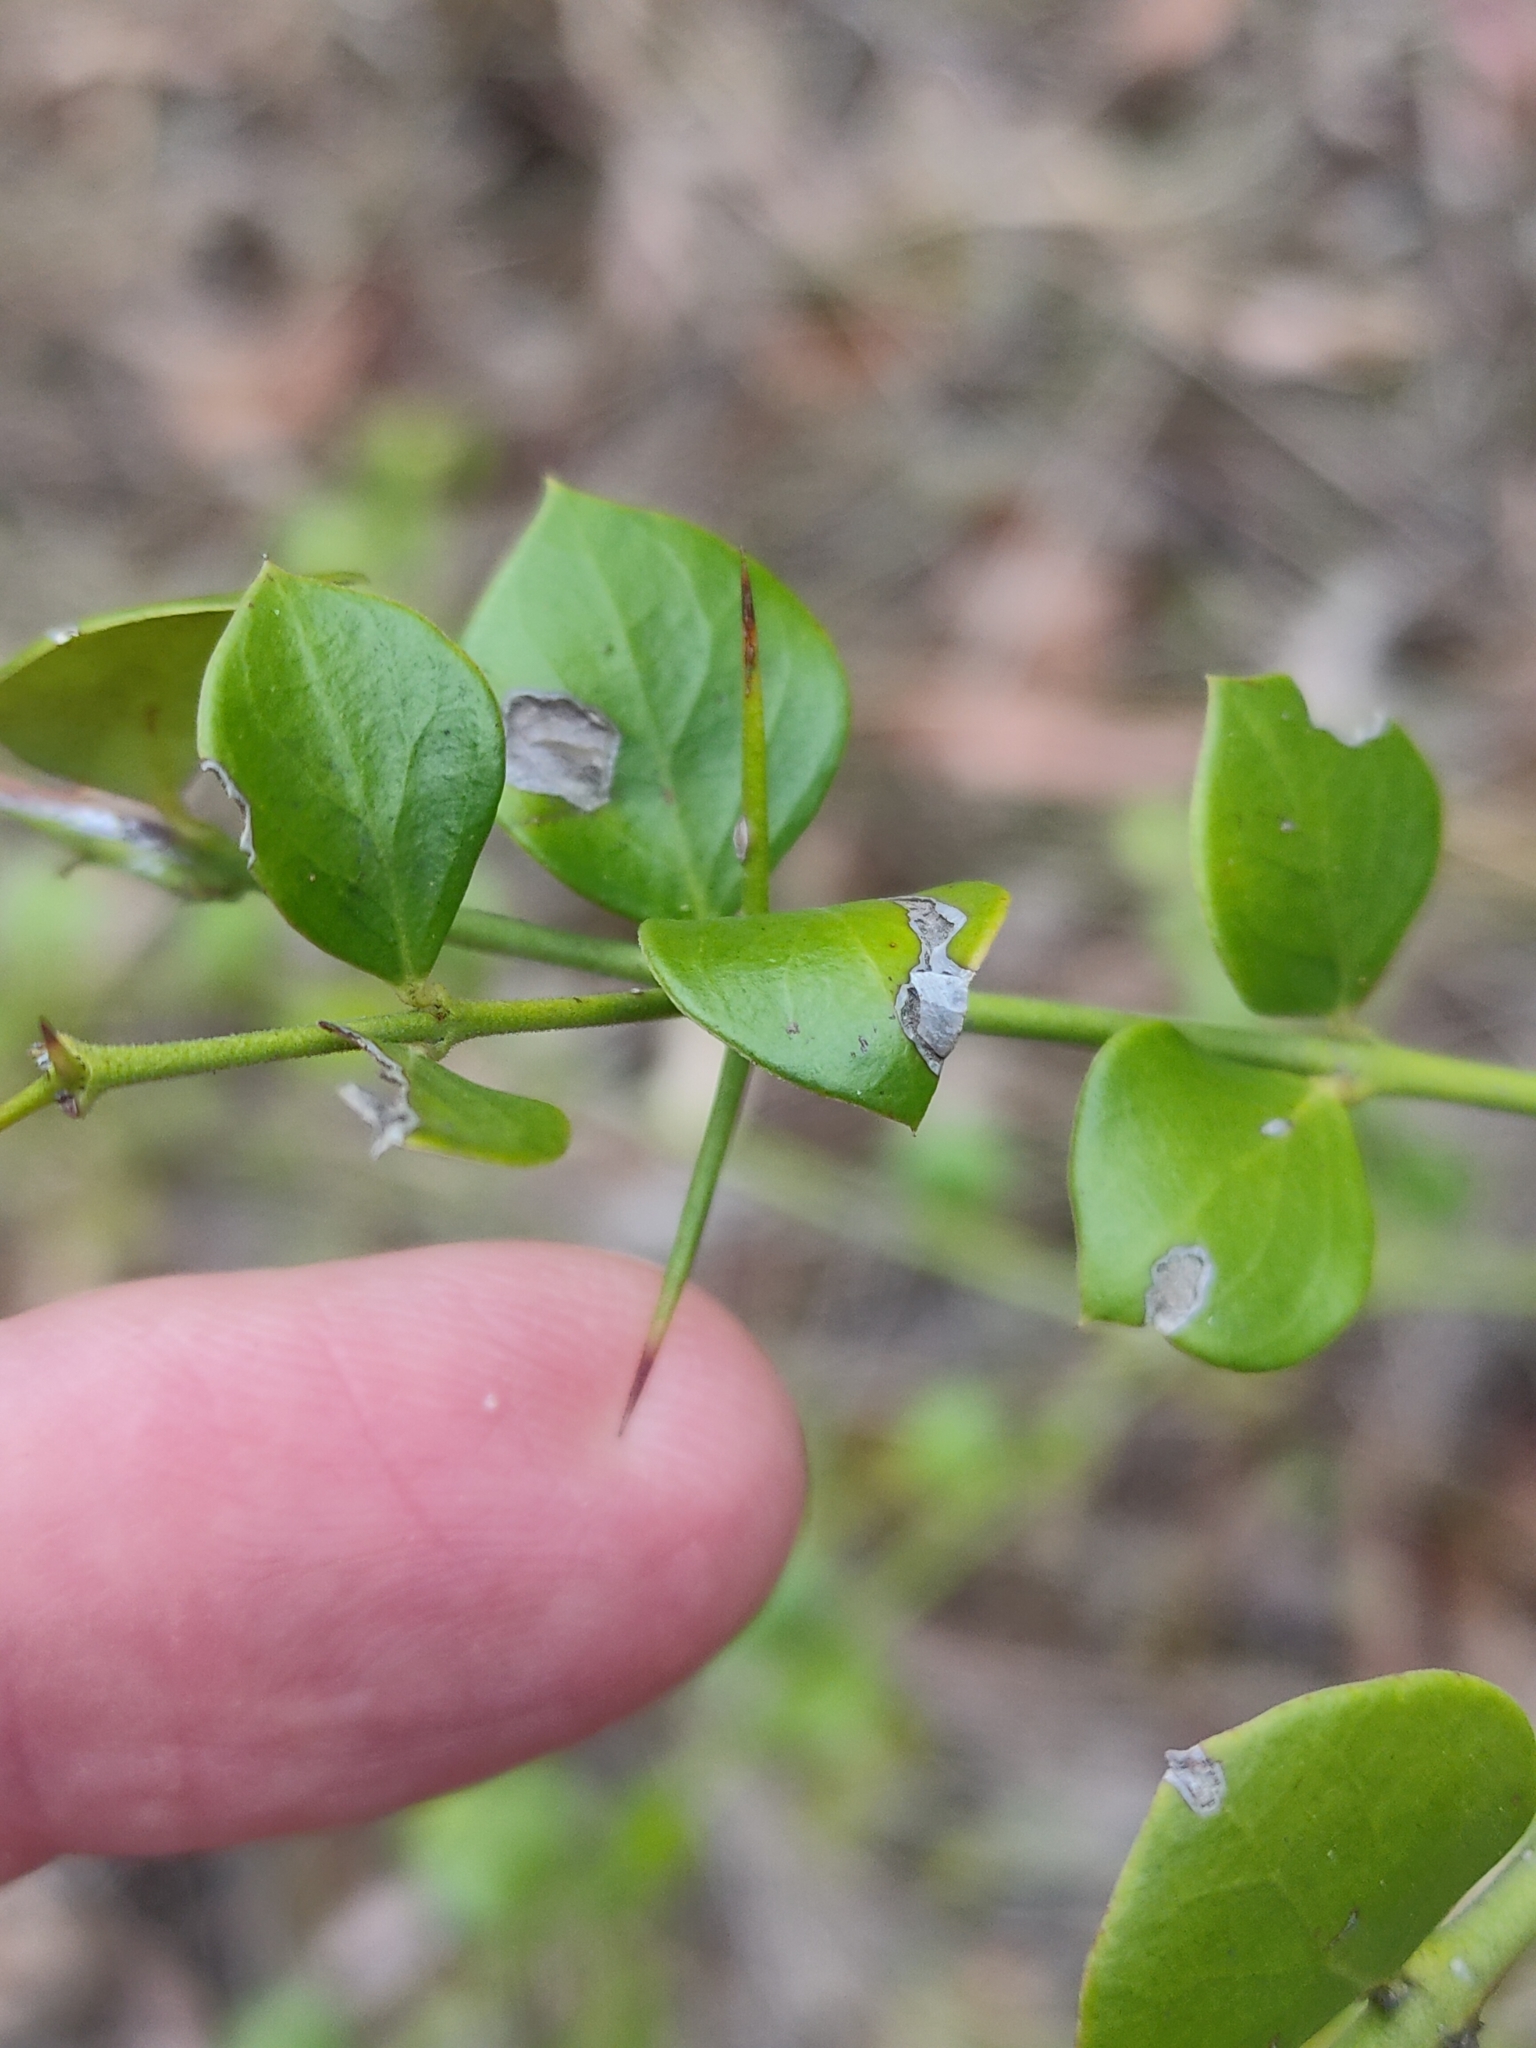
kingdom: Plantae
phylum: Tracheophyta
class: Magnoliopsida
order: Gentianales
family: Apocynaceae
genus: Carissa
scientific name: Carissa ovata
